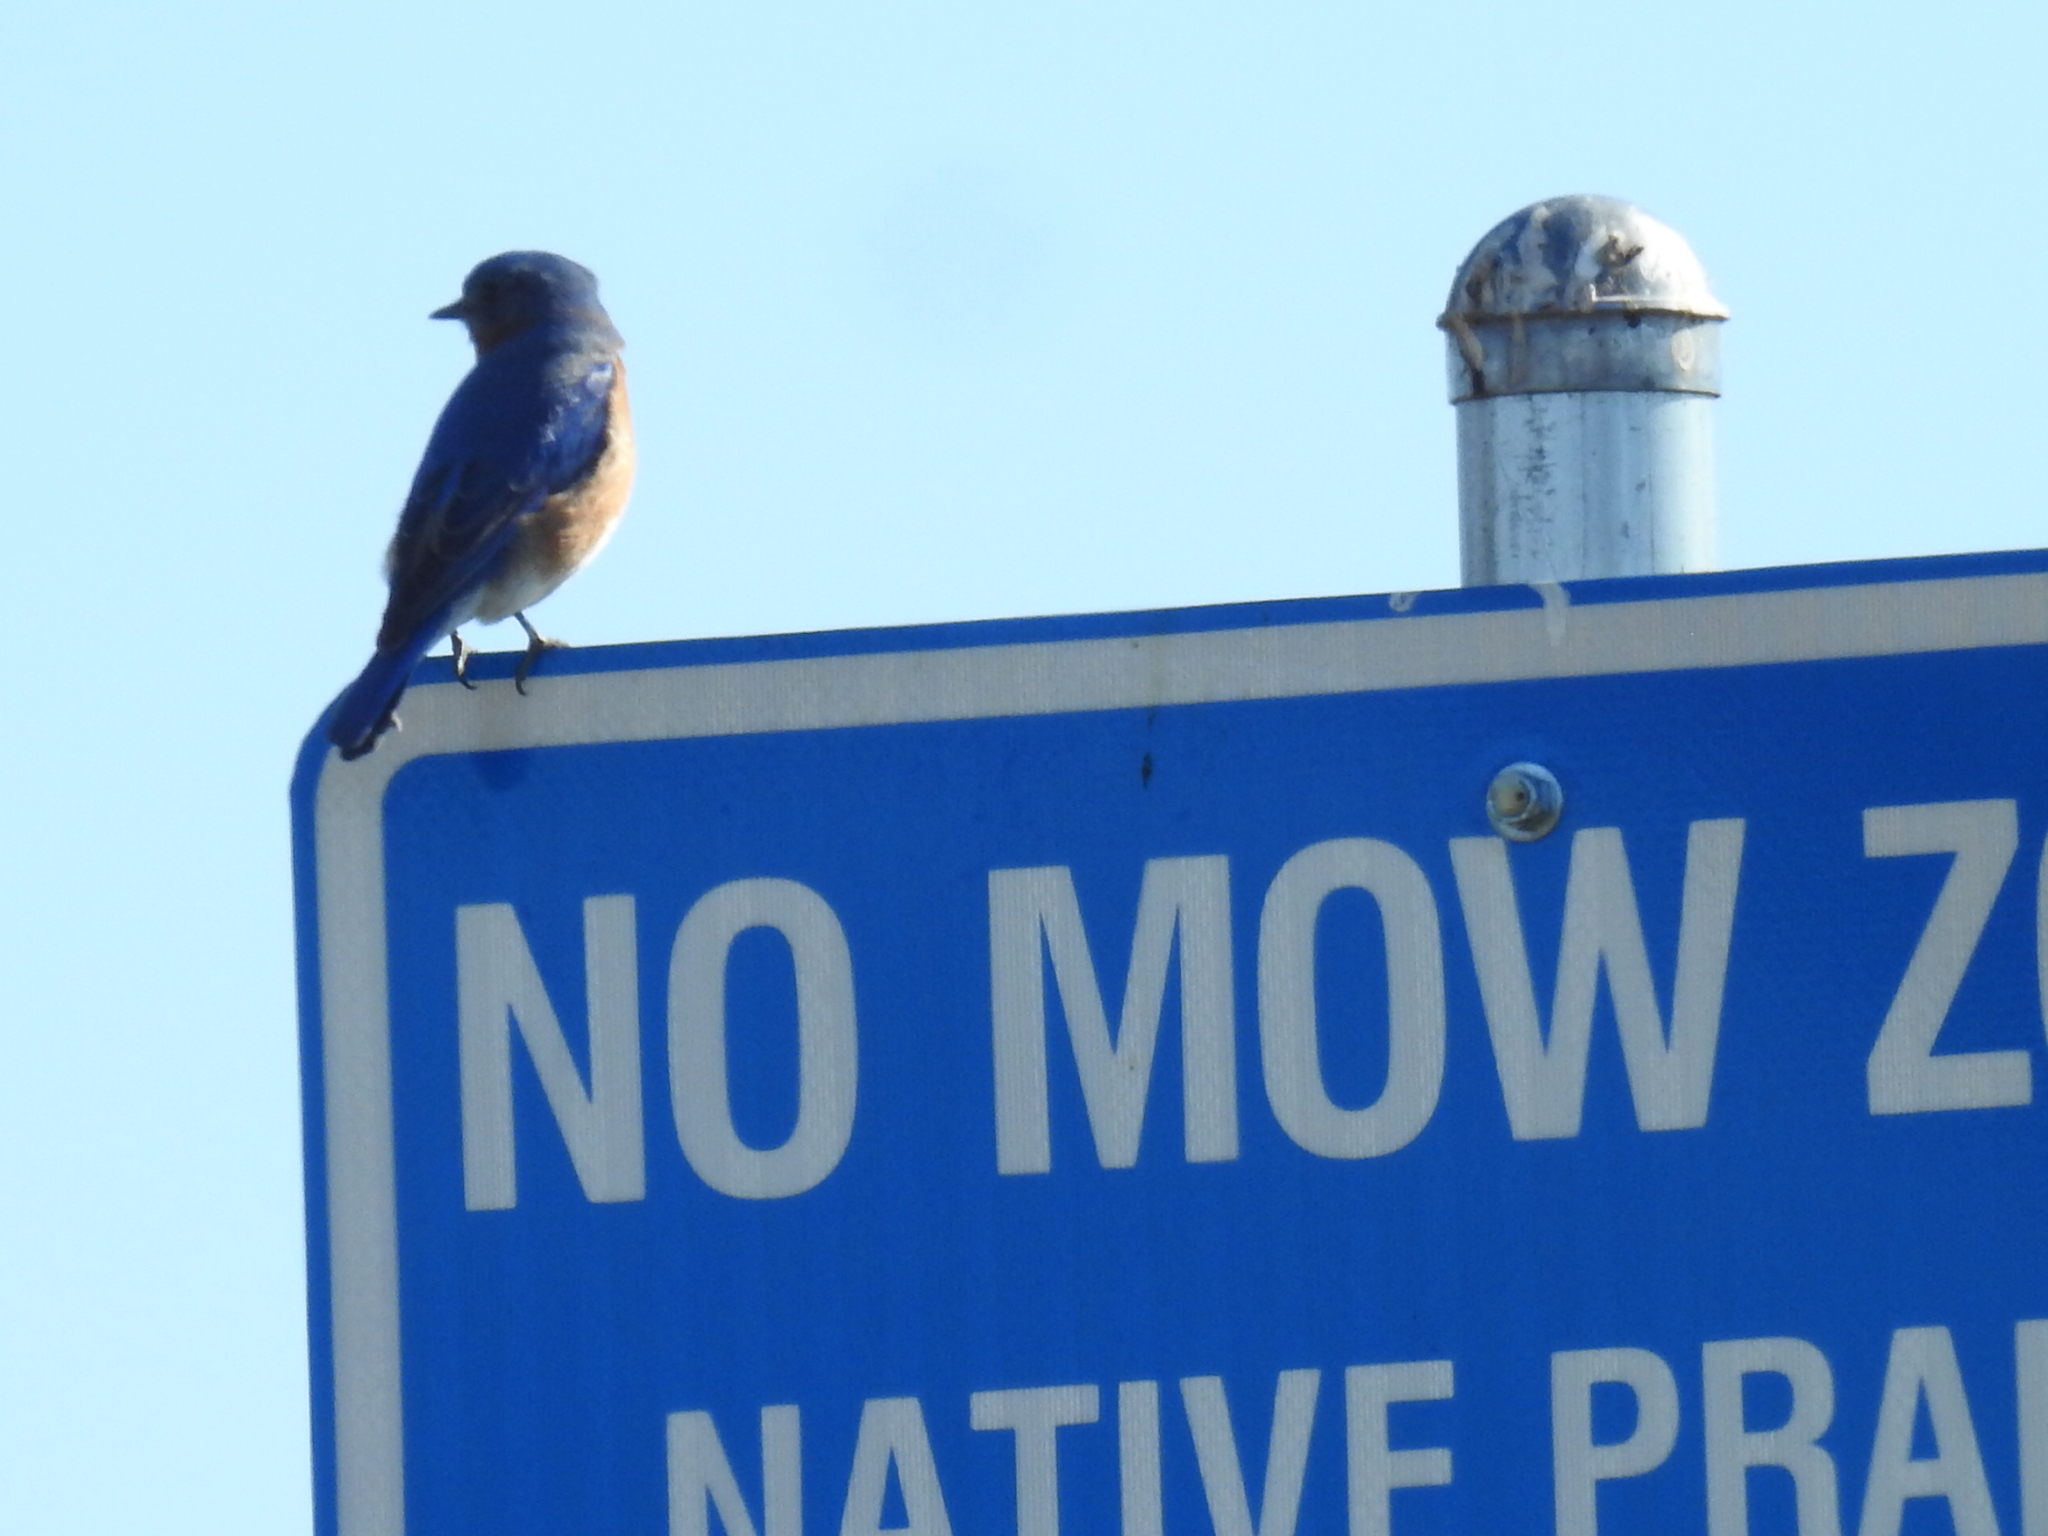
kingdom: Animalia
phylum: Chordata
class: Aves
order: Passeriformes
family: Turdidae
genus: Sialia
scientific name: Sialia sialis
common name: Eastern bluebird
